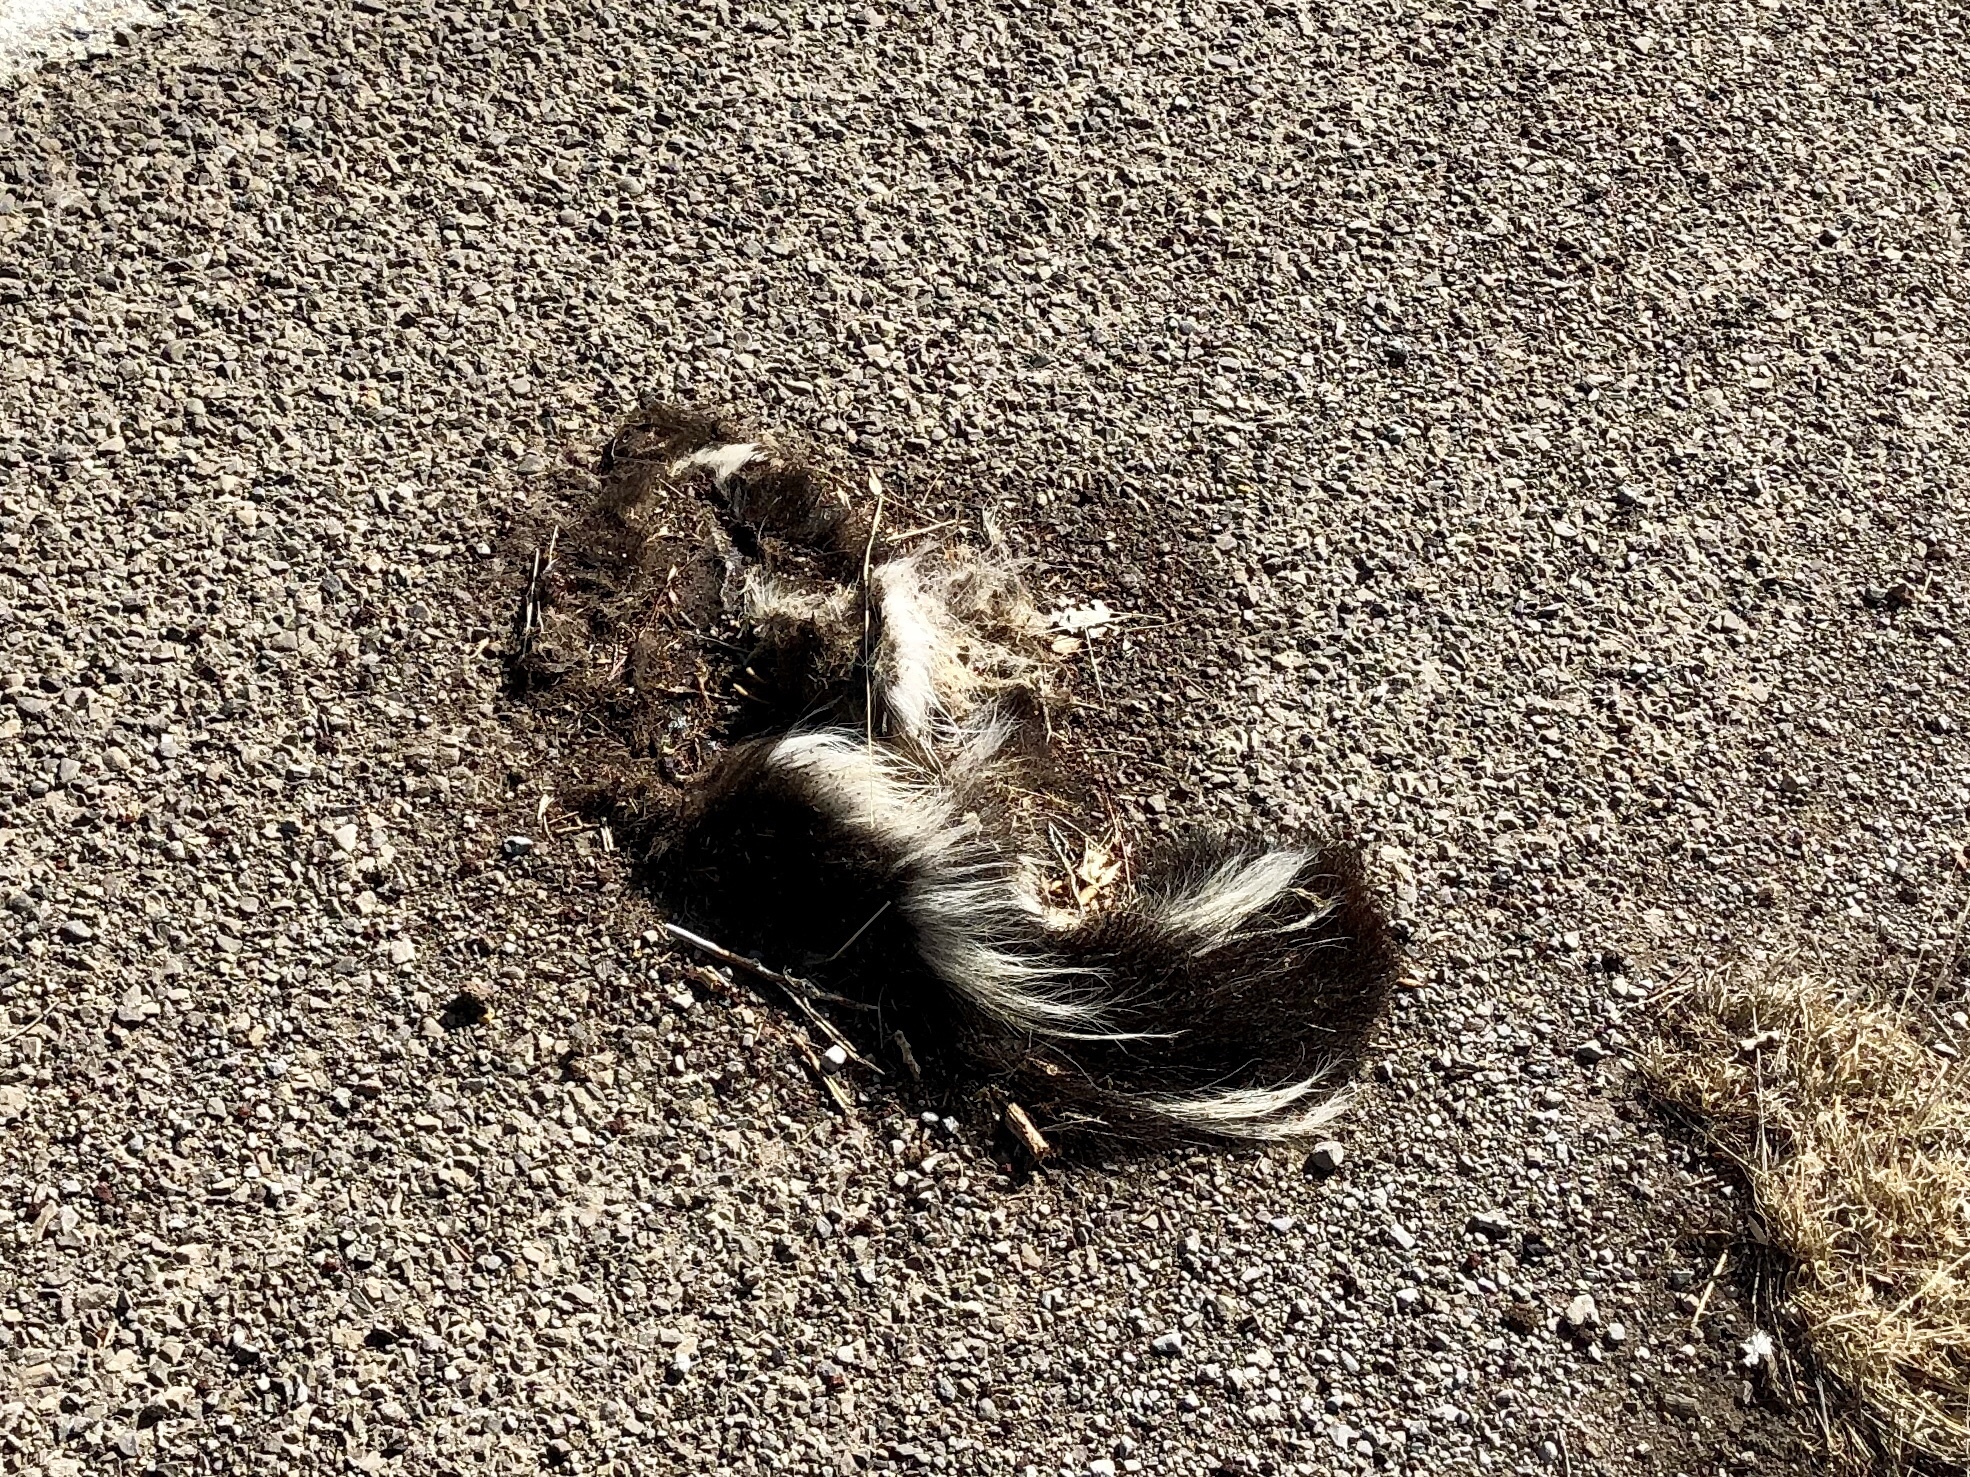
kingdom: Animalia
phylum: Chordata
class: Mammalia
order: Carnivora
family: Mephitidae
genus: Mephitis
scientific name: Mephitis mephitis
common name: Striped skunk
